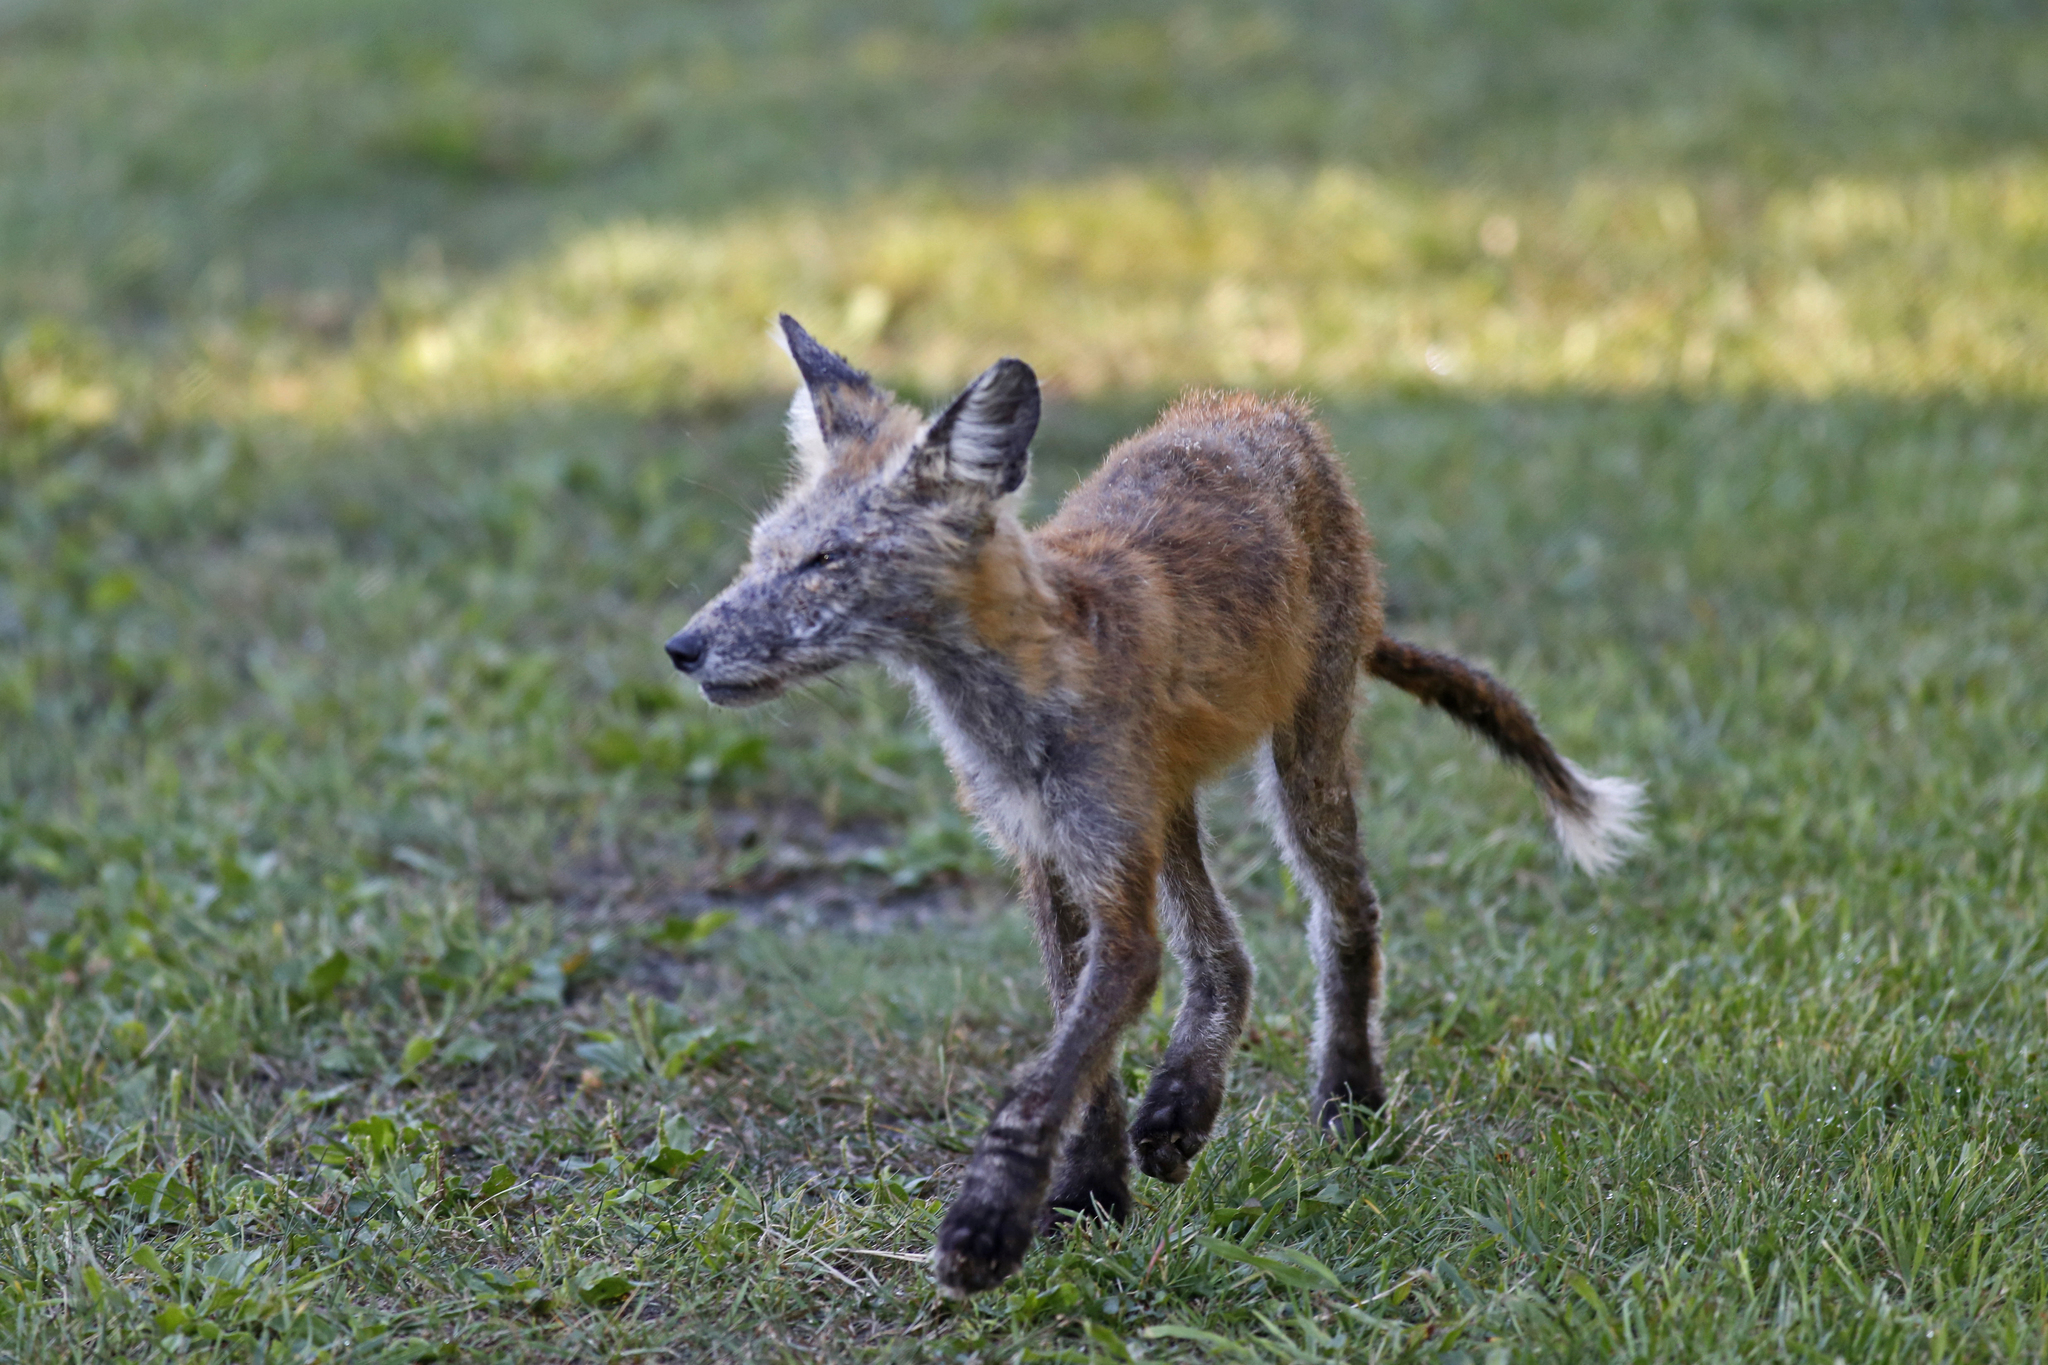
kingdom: Animalia
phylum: Chordata
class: Mammalia
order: Carnivora
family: Canidae
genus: Vulpes
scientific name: Vulpes vulpes
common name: Red fox
